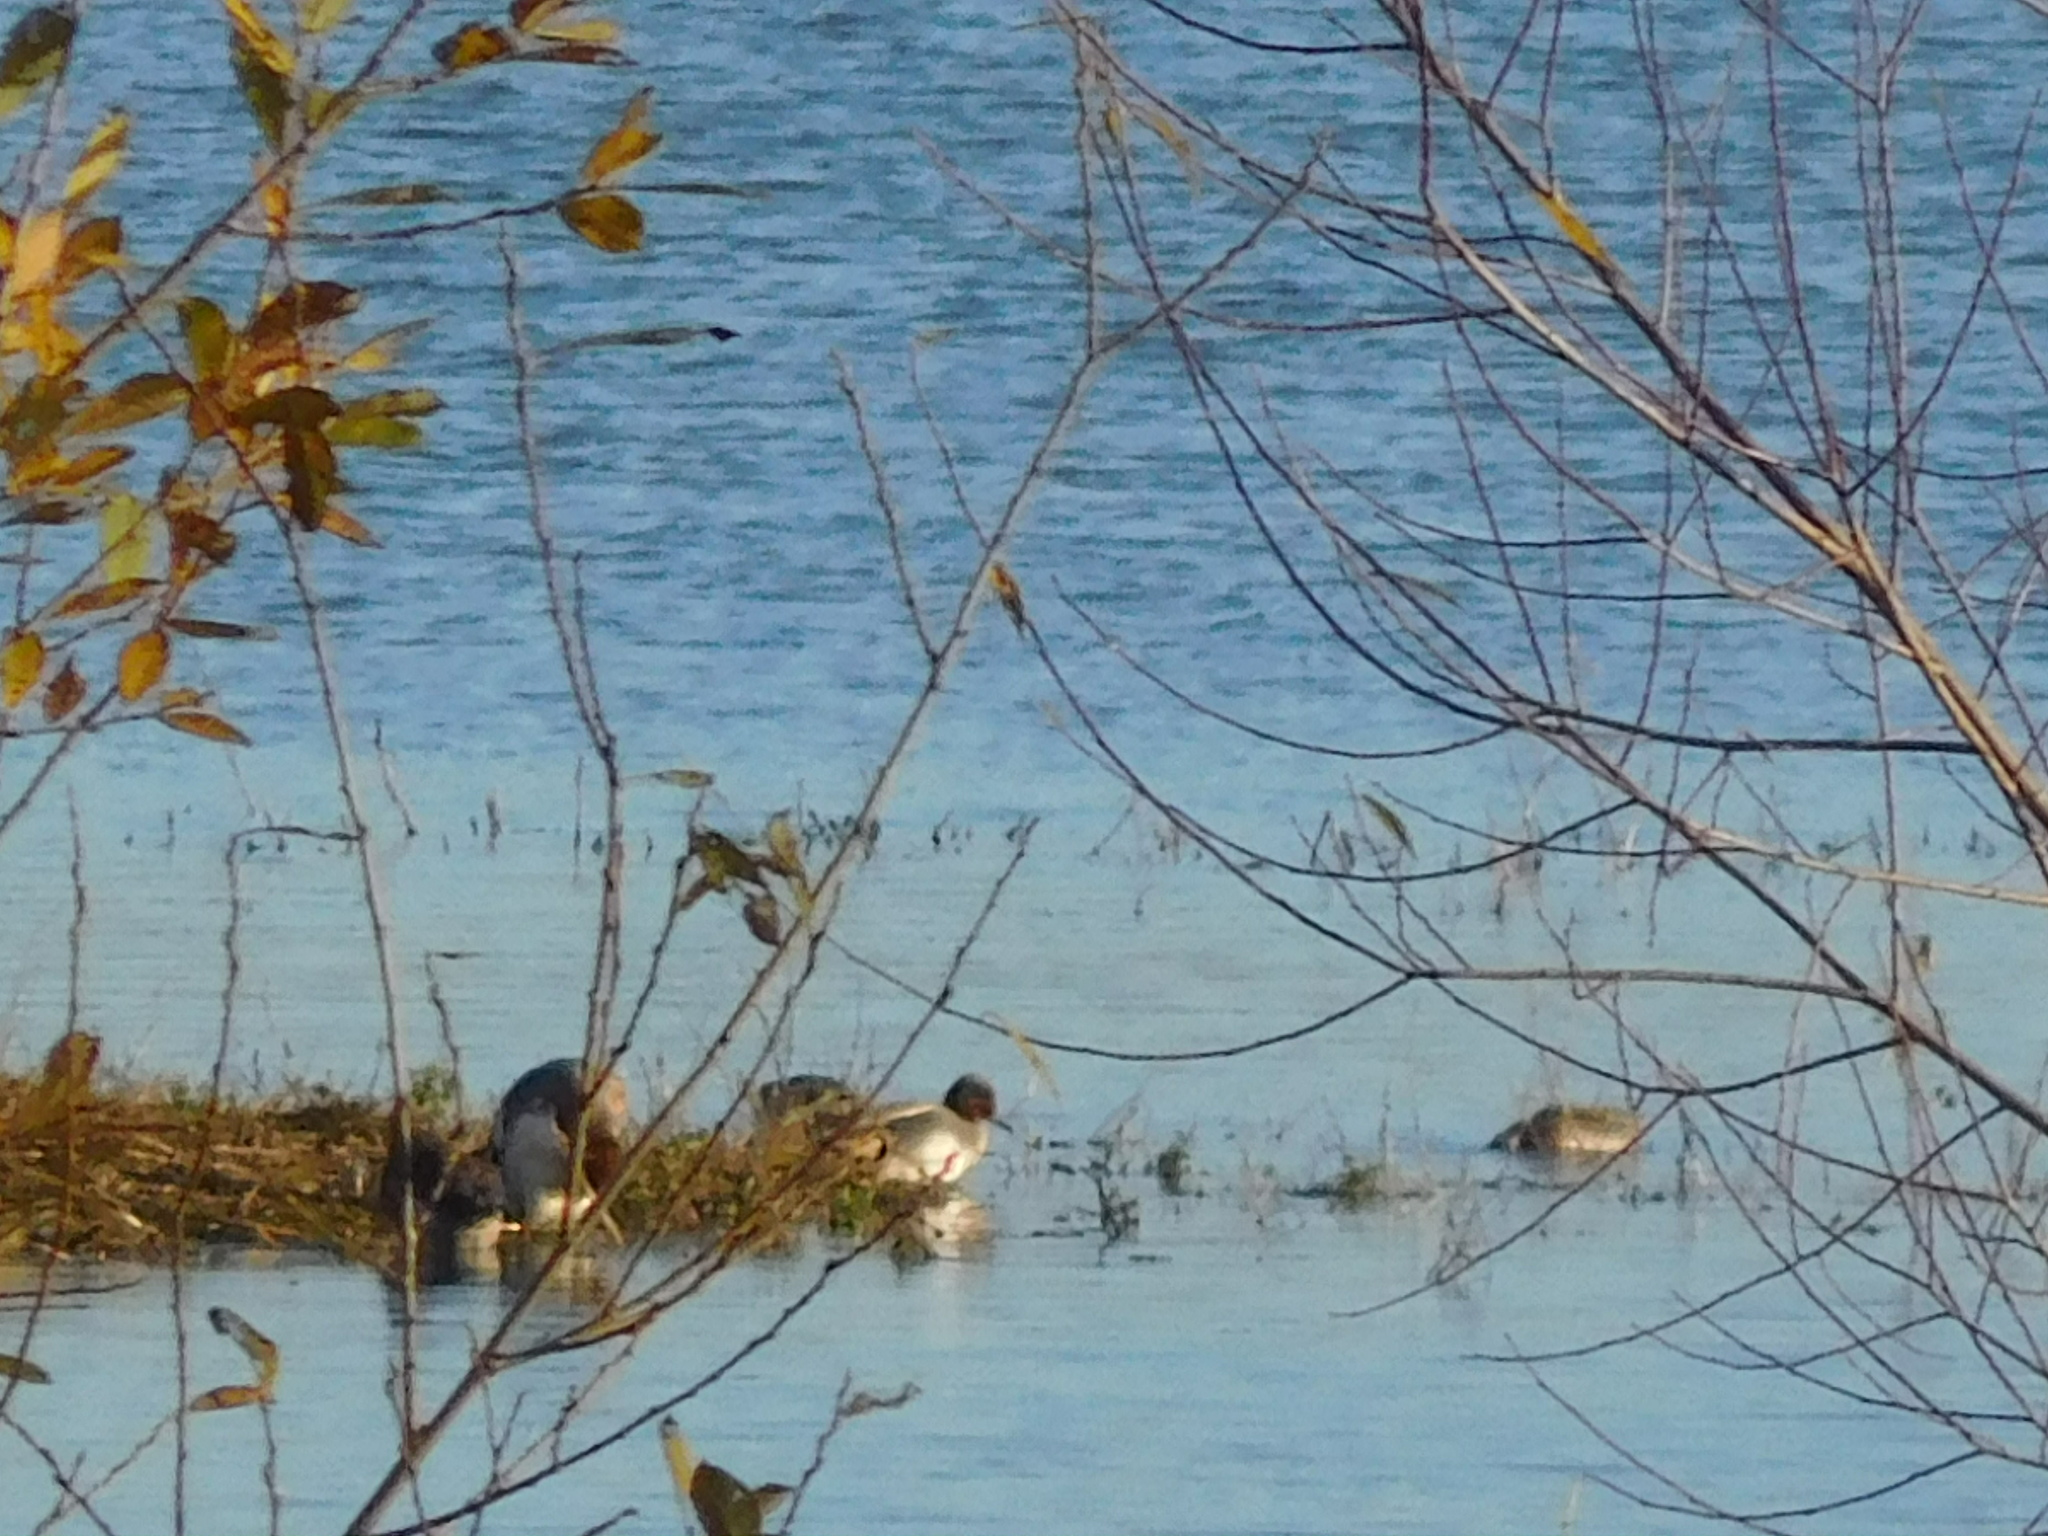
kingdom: Animalia
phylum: Chordata
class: Aves
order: Anseriformes
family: Anatidae
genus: Anas
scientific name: Anas crecca
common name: Eurasian teal
